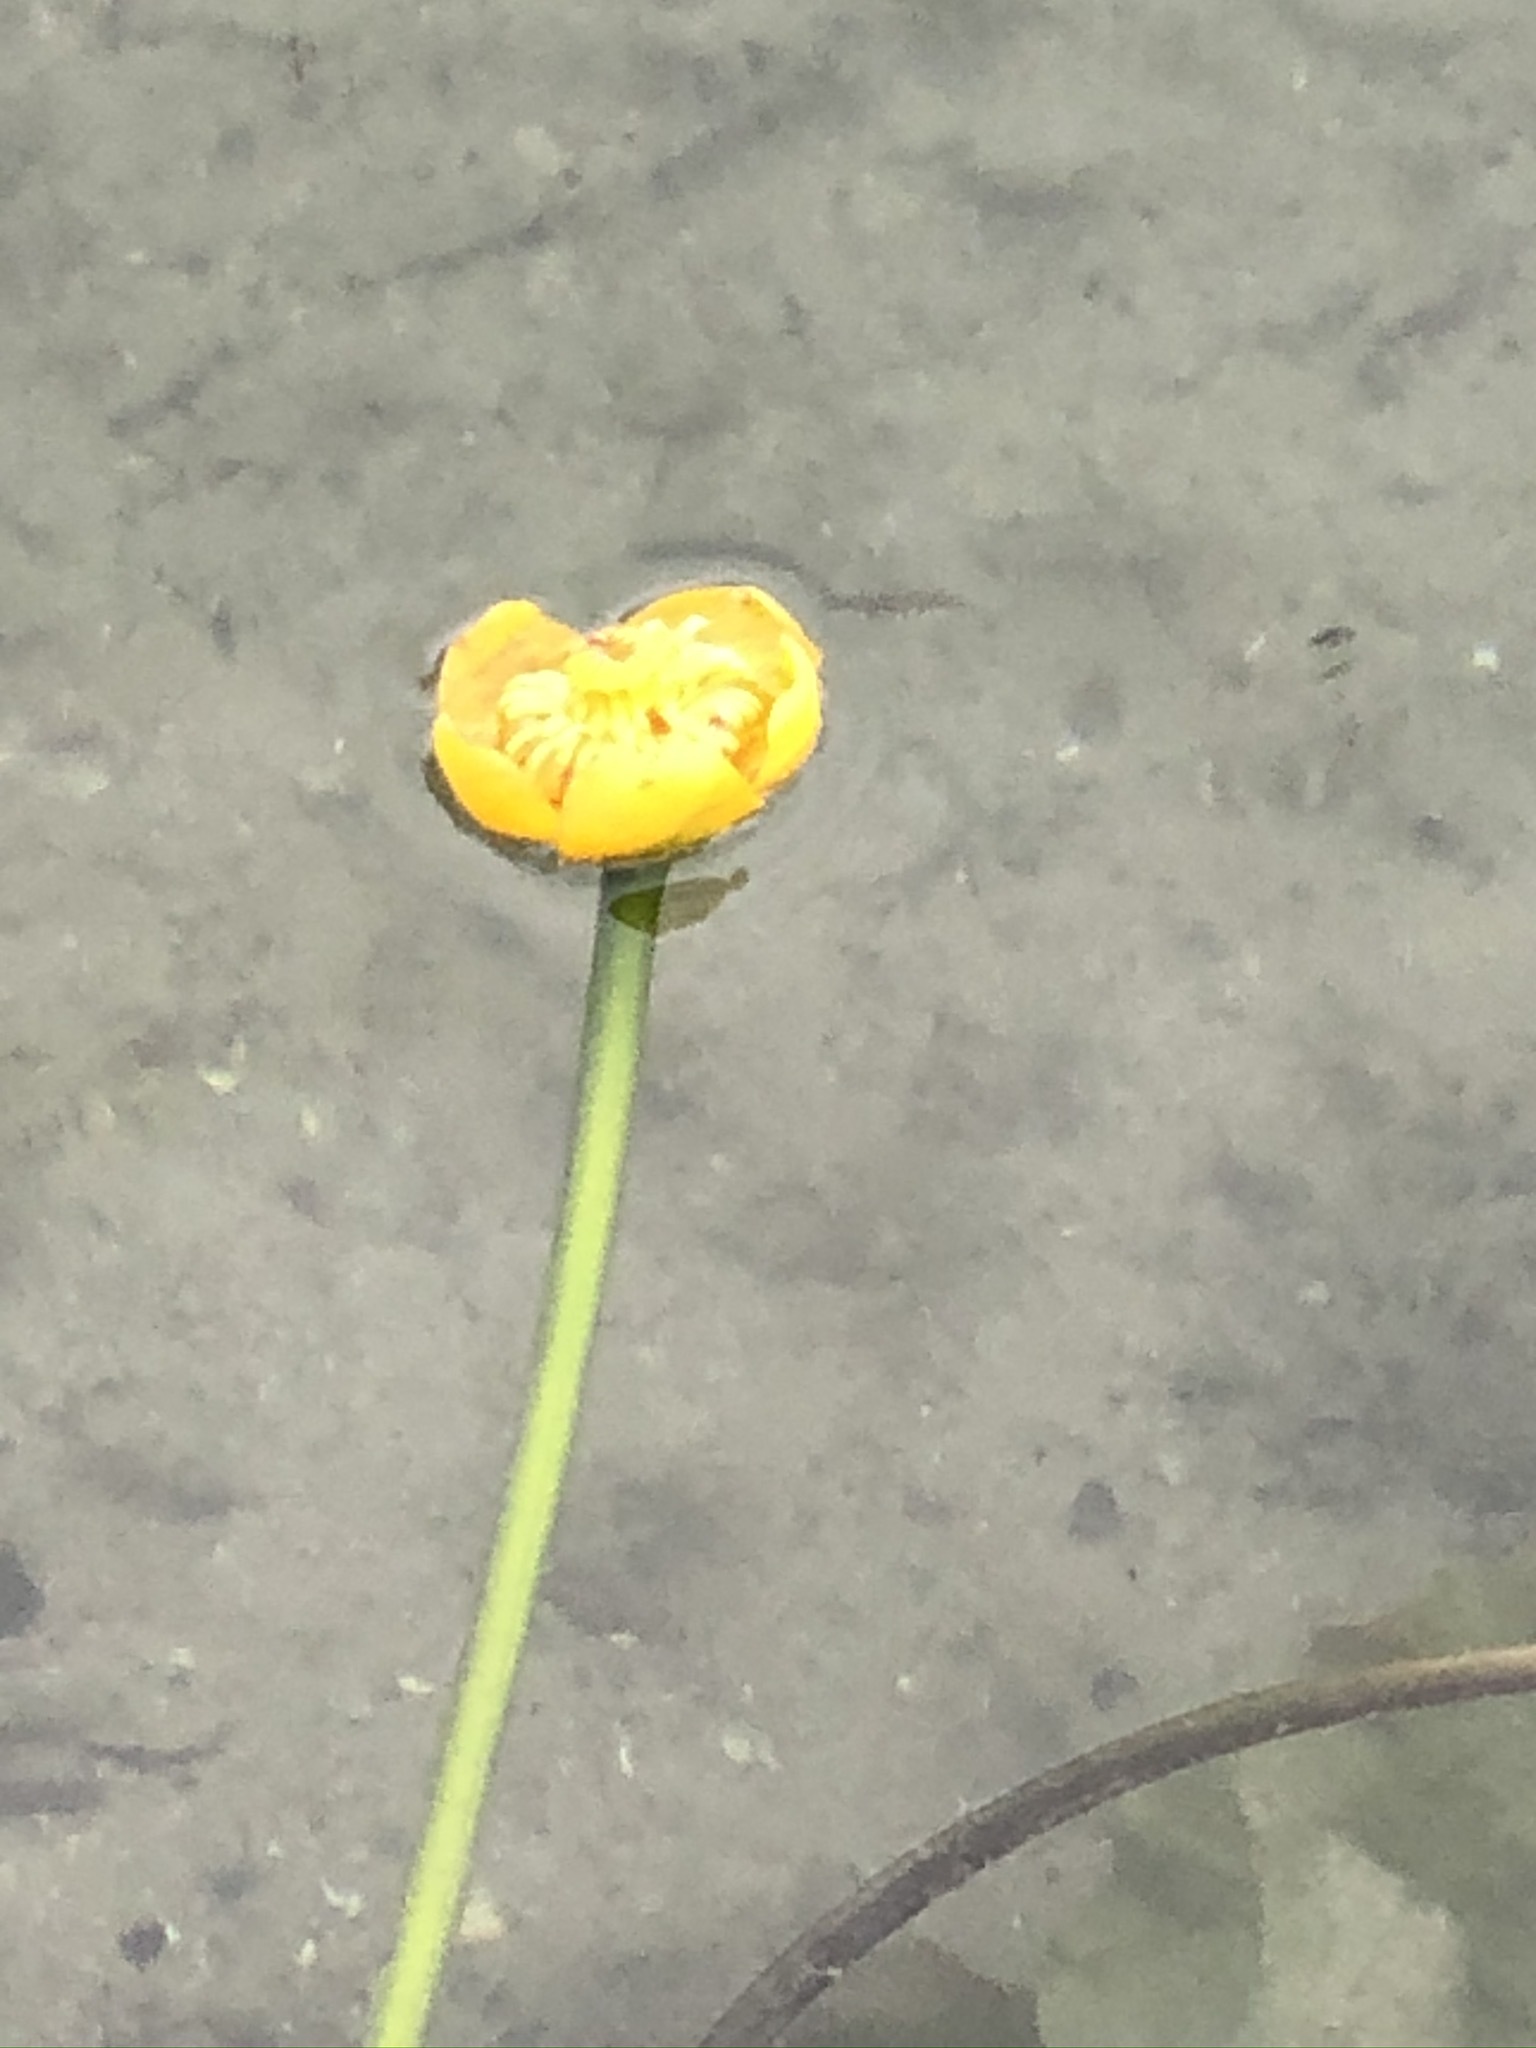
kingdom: Plantae
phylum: Tracheophyta
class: Magnoliopsida
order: Nymphaeales
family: Nymphaeaceae
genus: Nuphar
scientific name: Nuphar lutea
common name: Yellow water-lily
